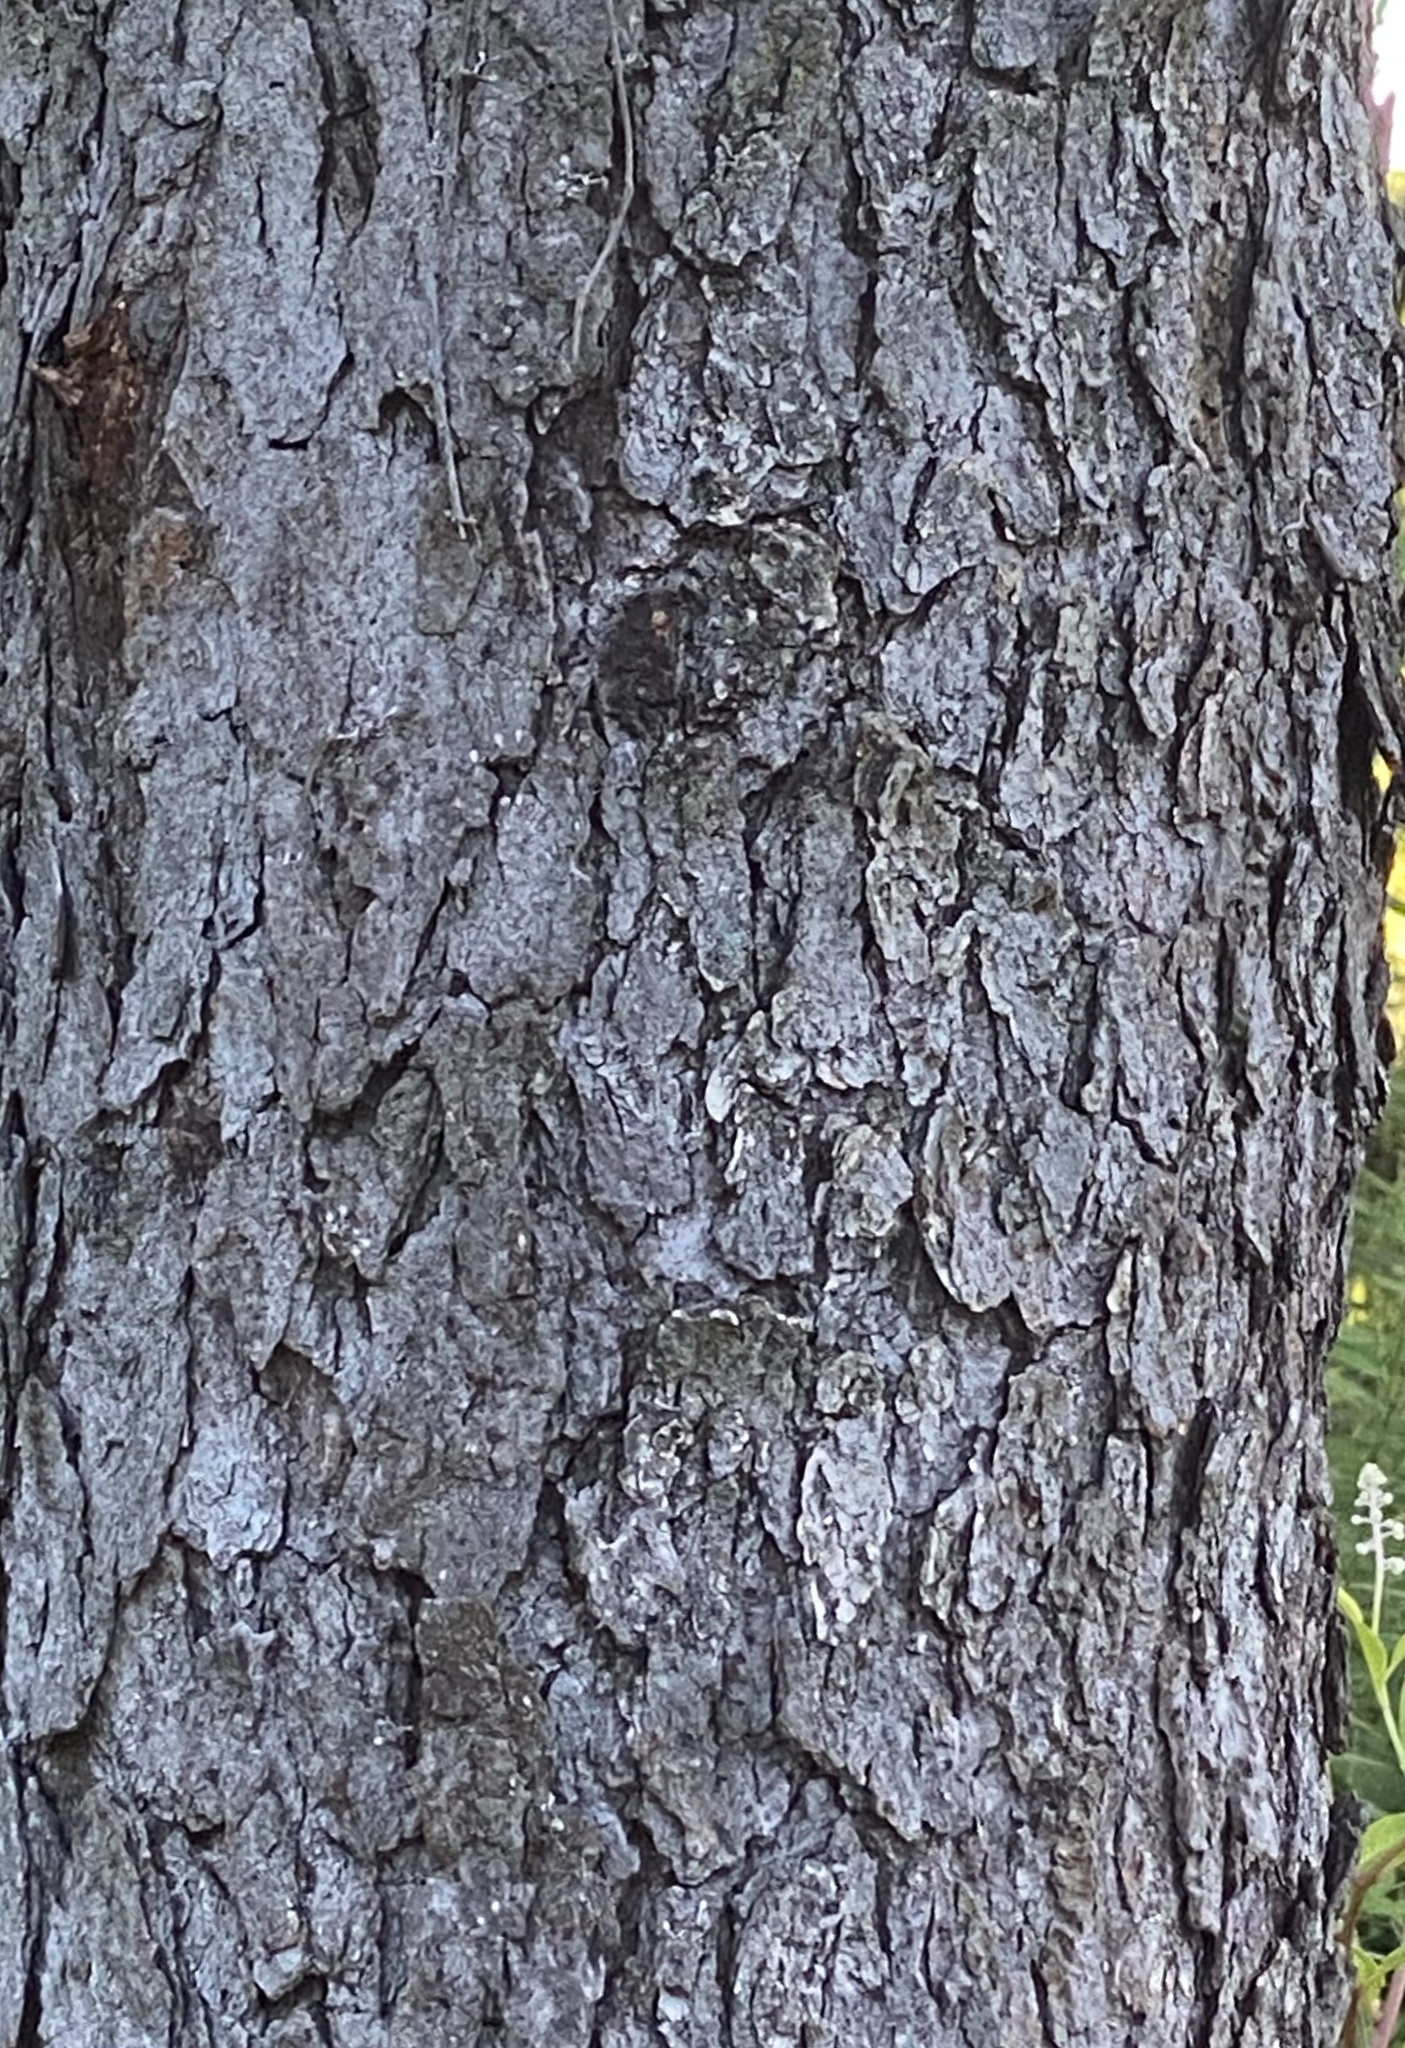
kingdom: Plantae
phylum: Tracheophyta
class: Magnoliopsida
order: Rosales
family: Rosaceae
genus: Prunus
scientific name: Prunus serotina
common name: Black cherry
